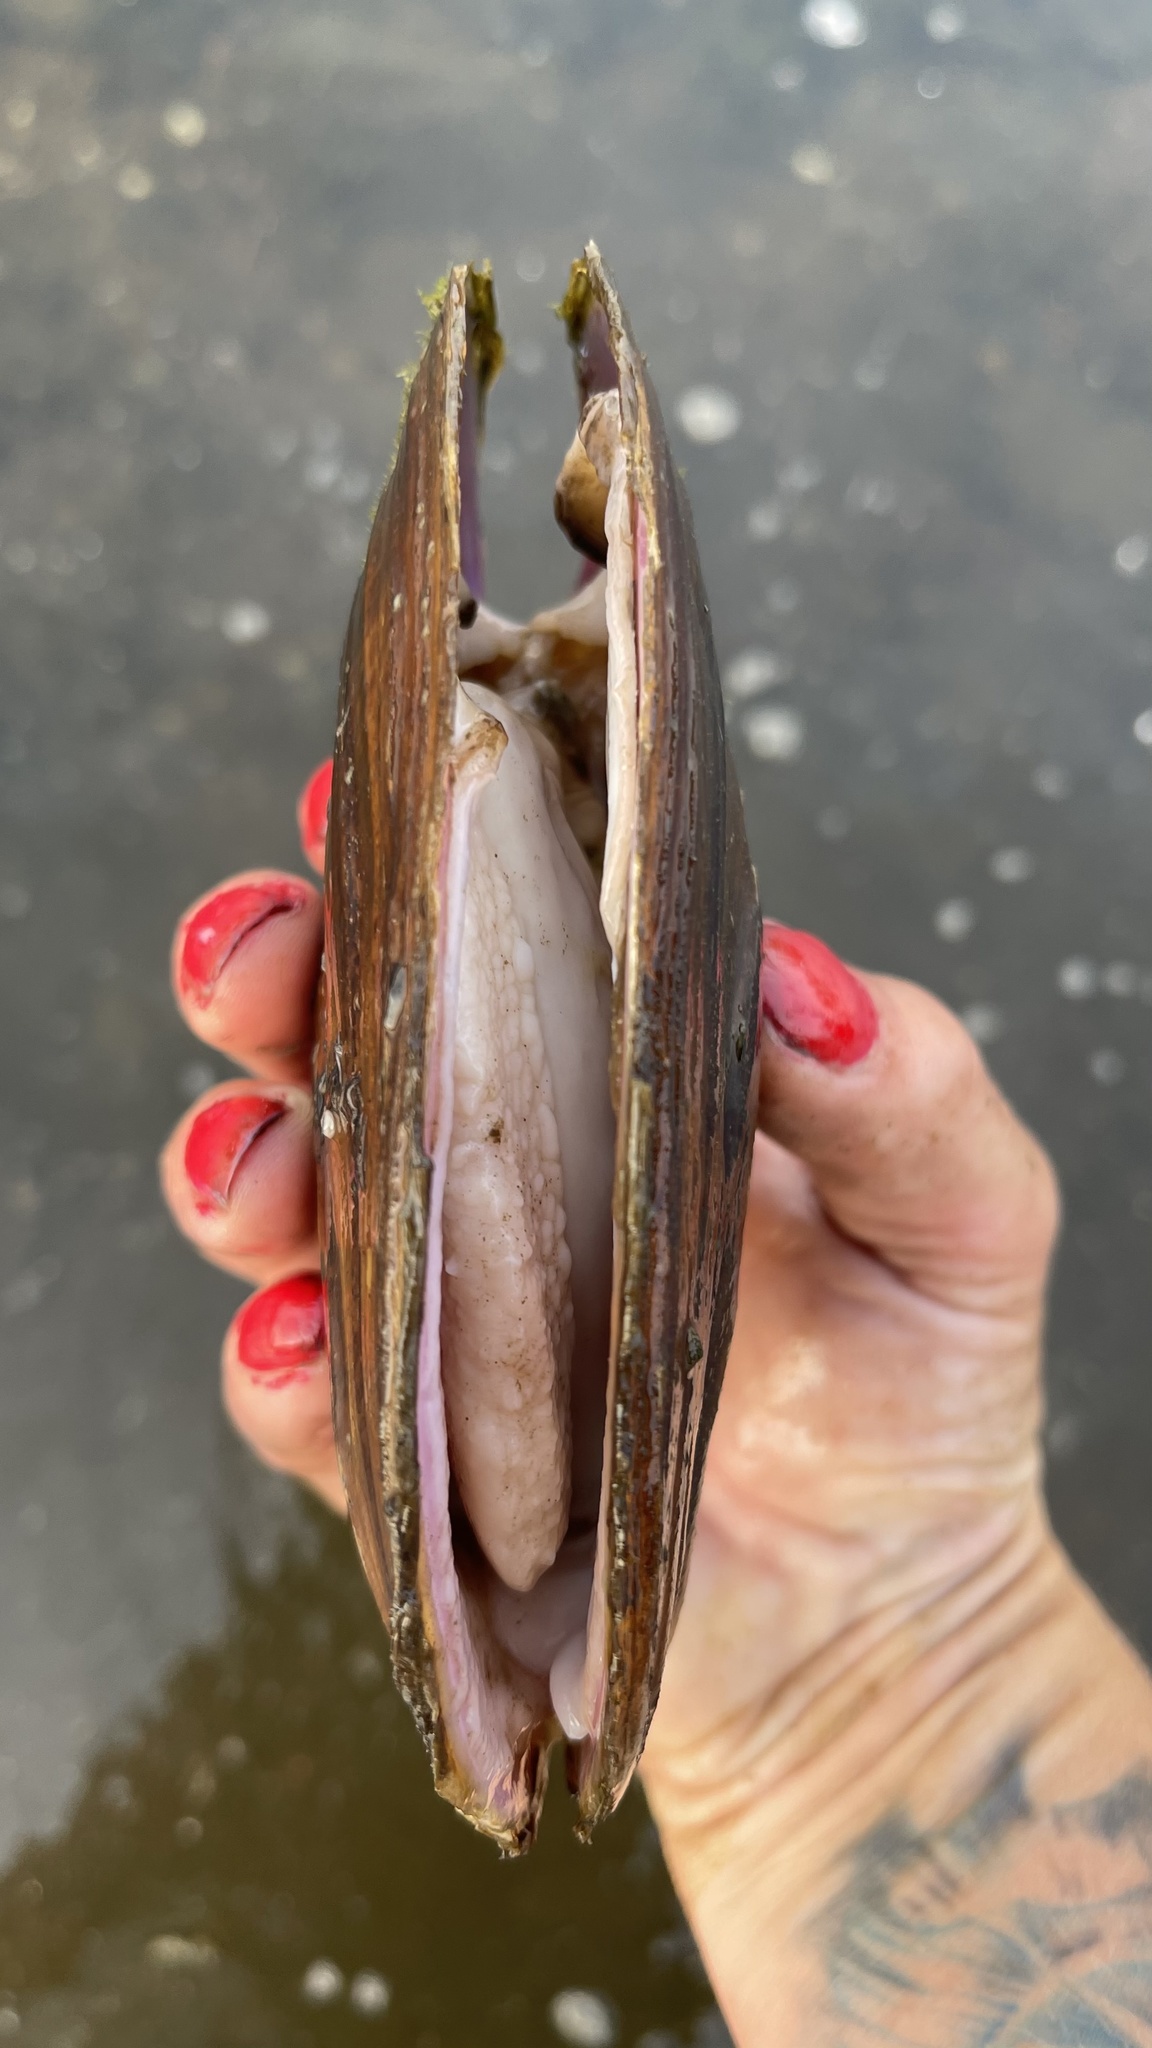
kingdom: Animalia
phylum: Mollusca
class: Bivalvia
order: Unionida
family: Unionidae
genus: Potamilus
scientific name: Potamilus alatus
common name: Pink heelsplitter
